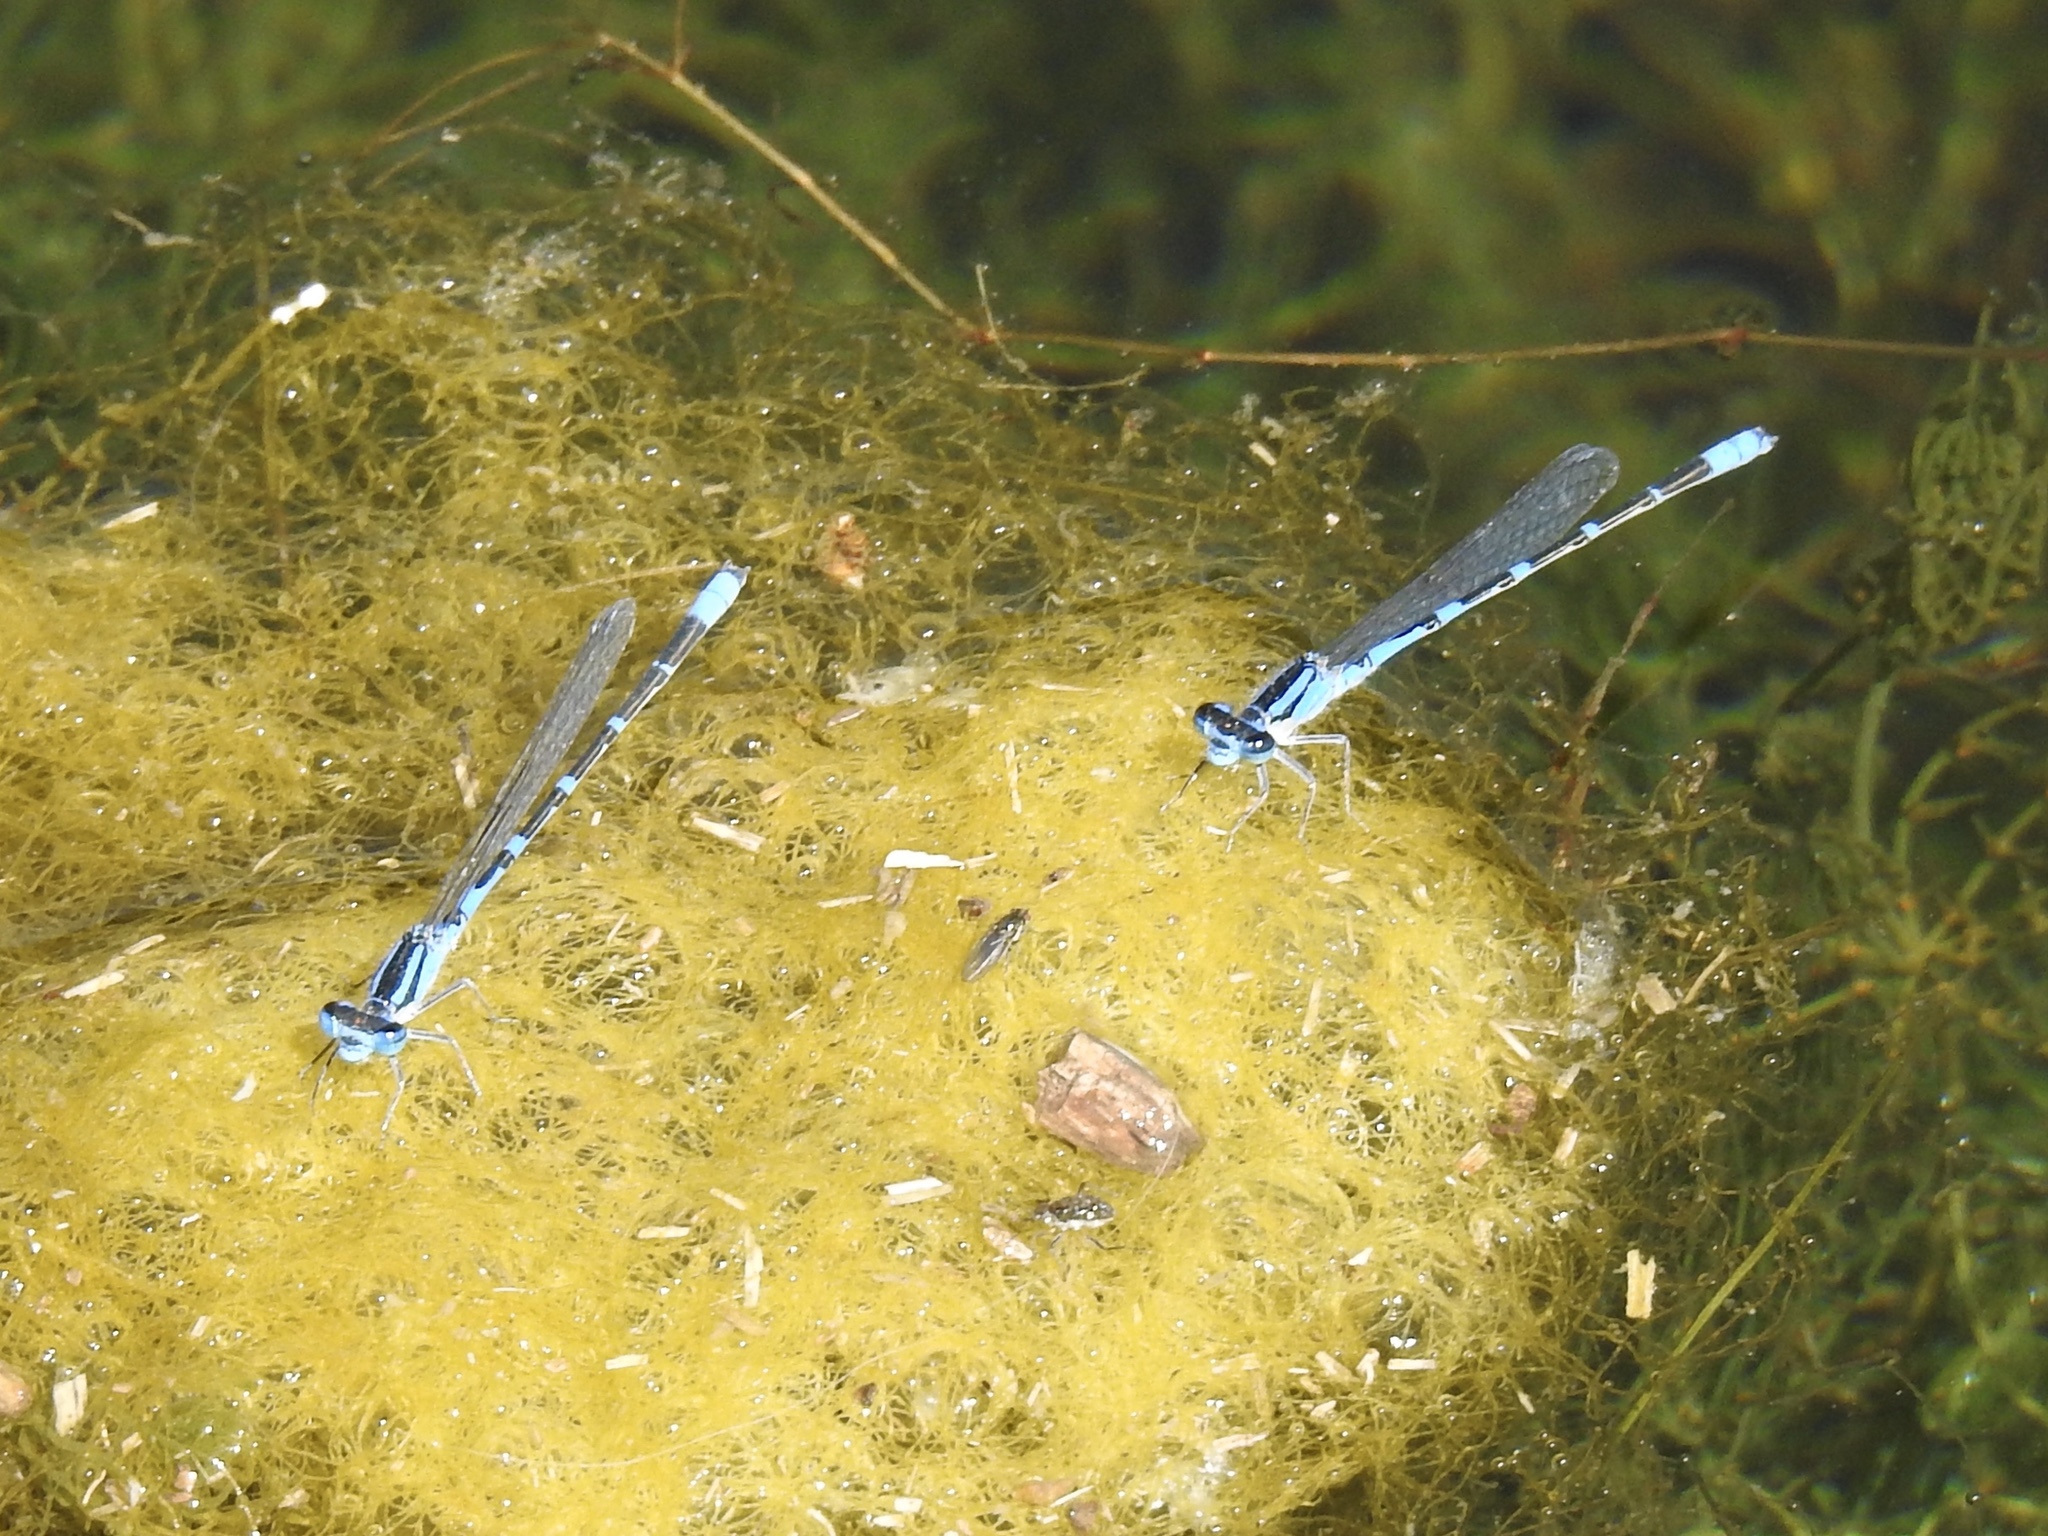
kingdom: Animalia
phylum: Arthropoda
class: Insecta
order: Odonata
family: Coenagrionidae
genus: Enallagma
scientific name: Enallagma carunculatum
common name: Tule bluet
